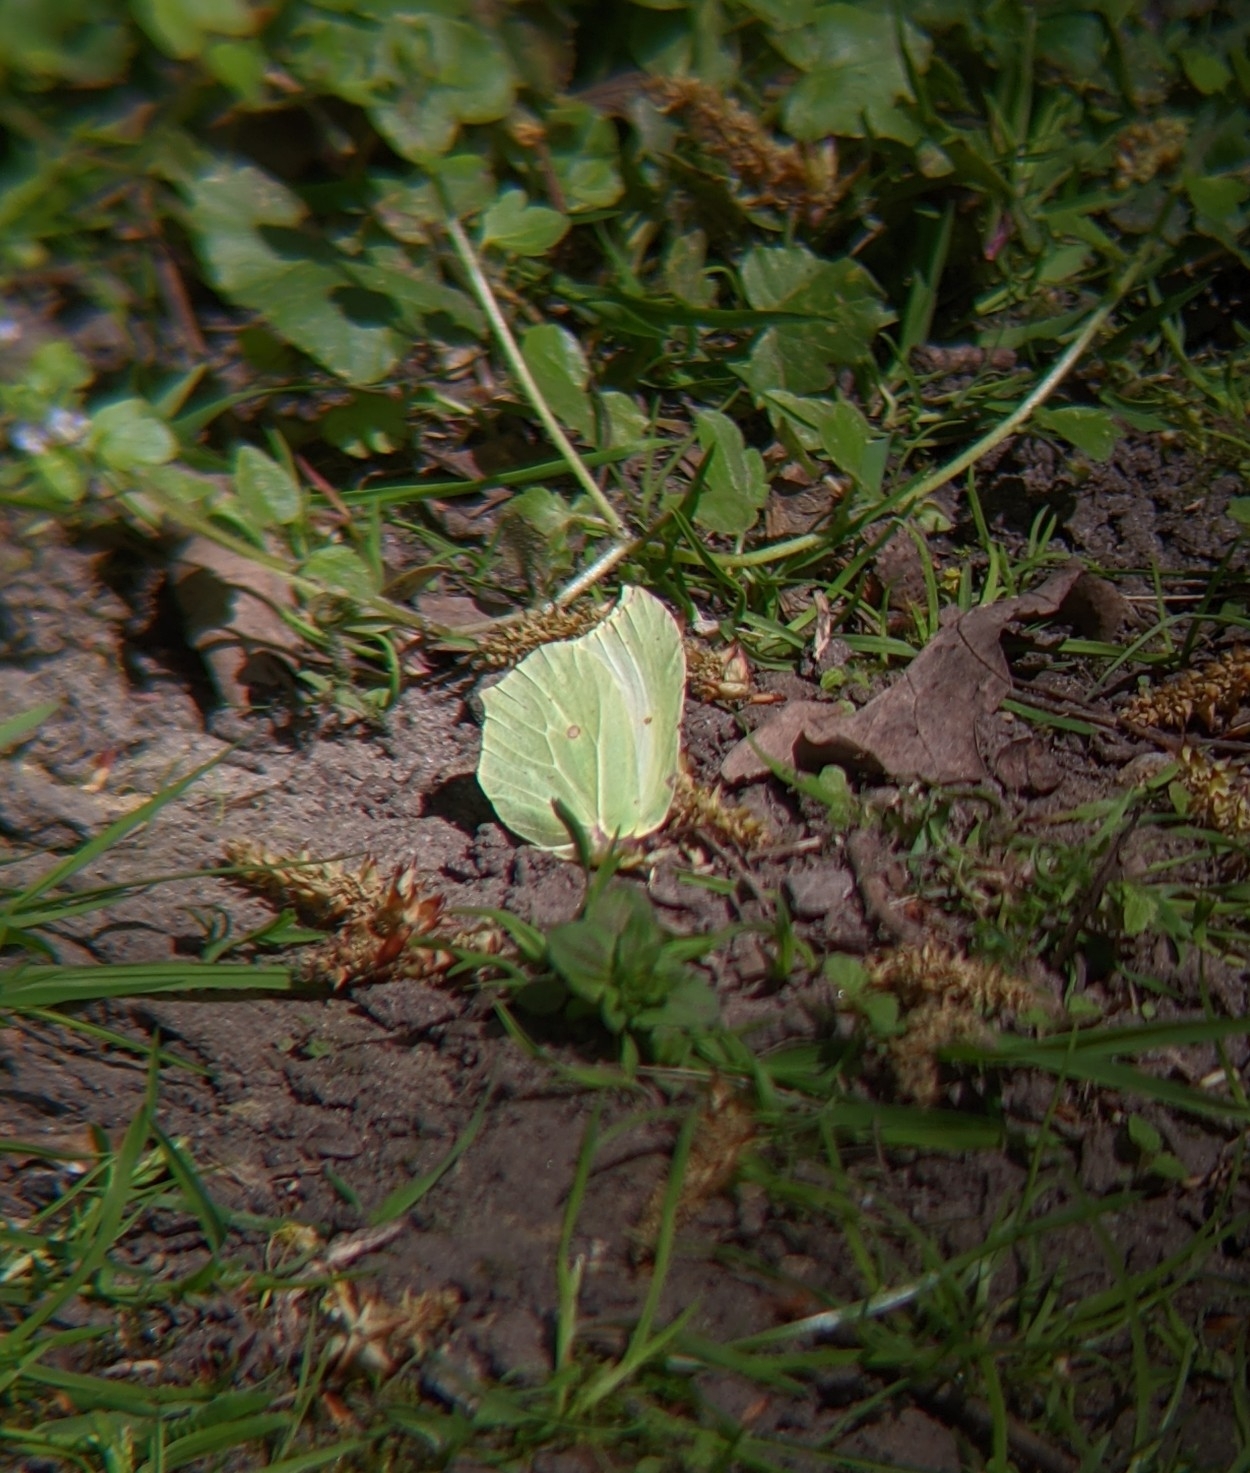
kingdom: Animalia
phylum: Arthropoda
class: Insecta
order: Lepidoptera
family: Pieridae
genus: Gonepteryx
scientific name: Gonepteryx rhamni
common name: Brimstone
